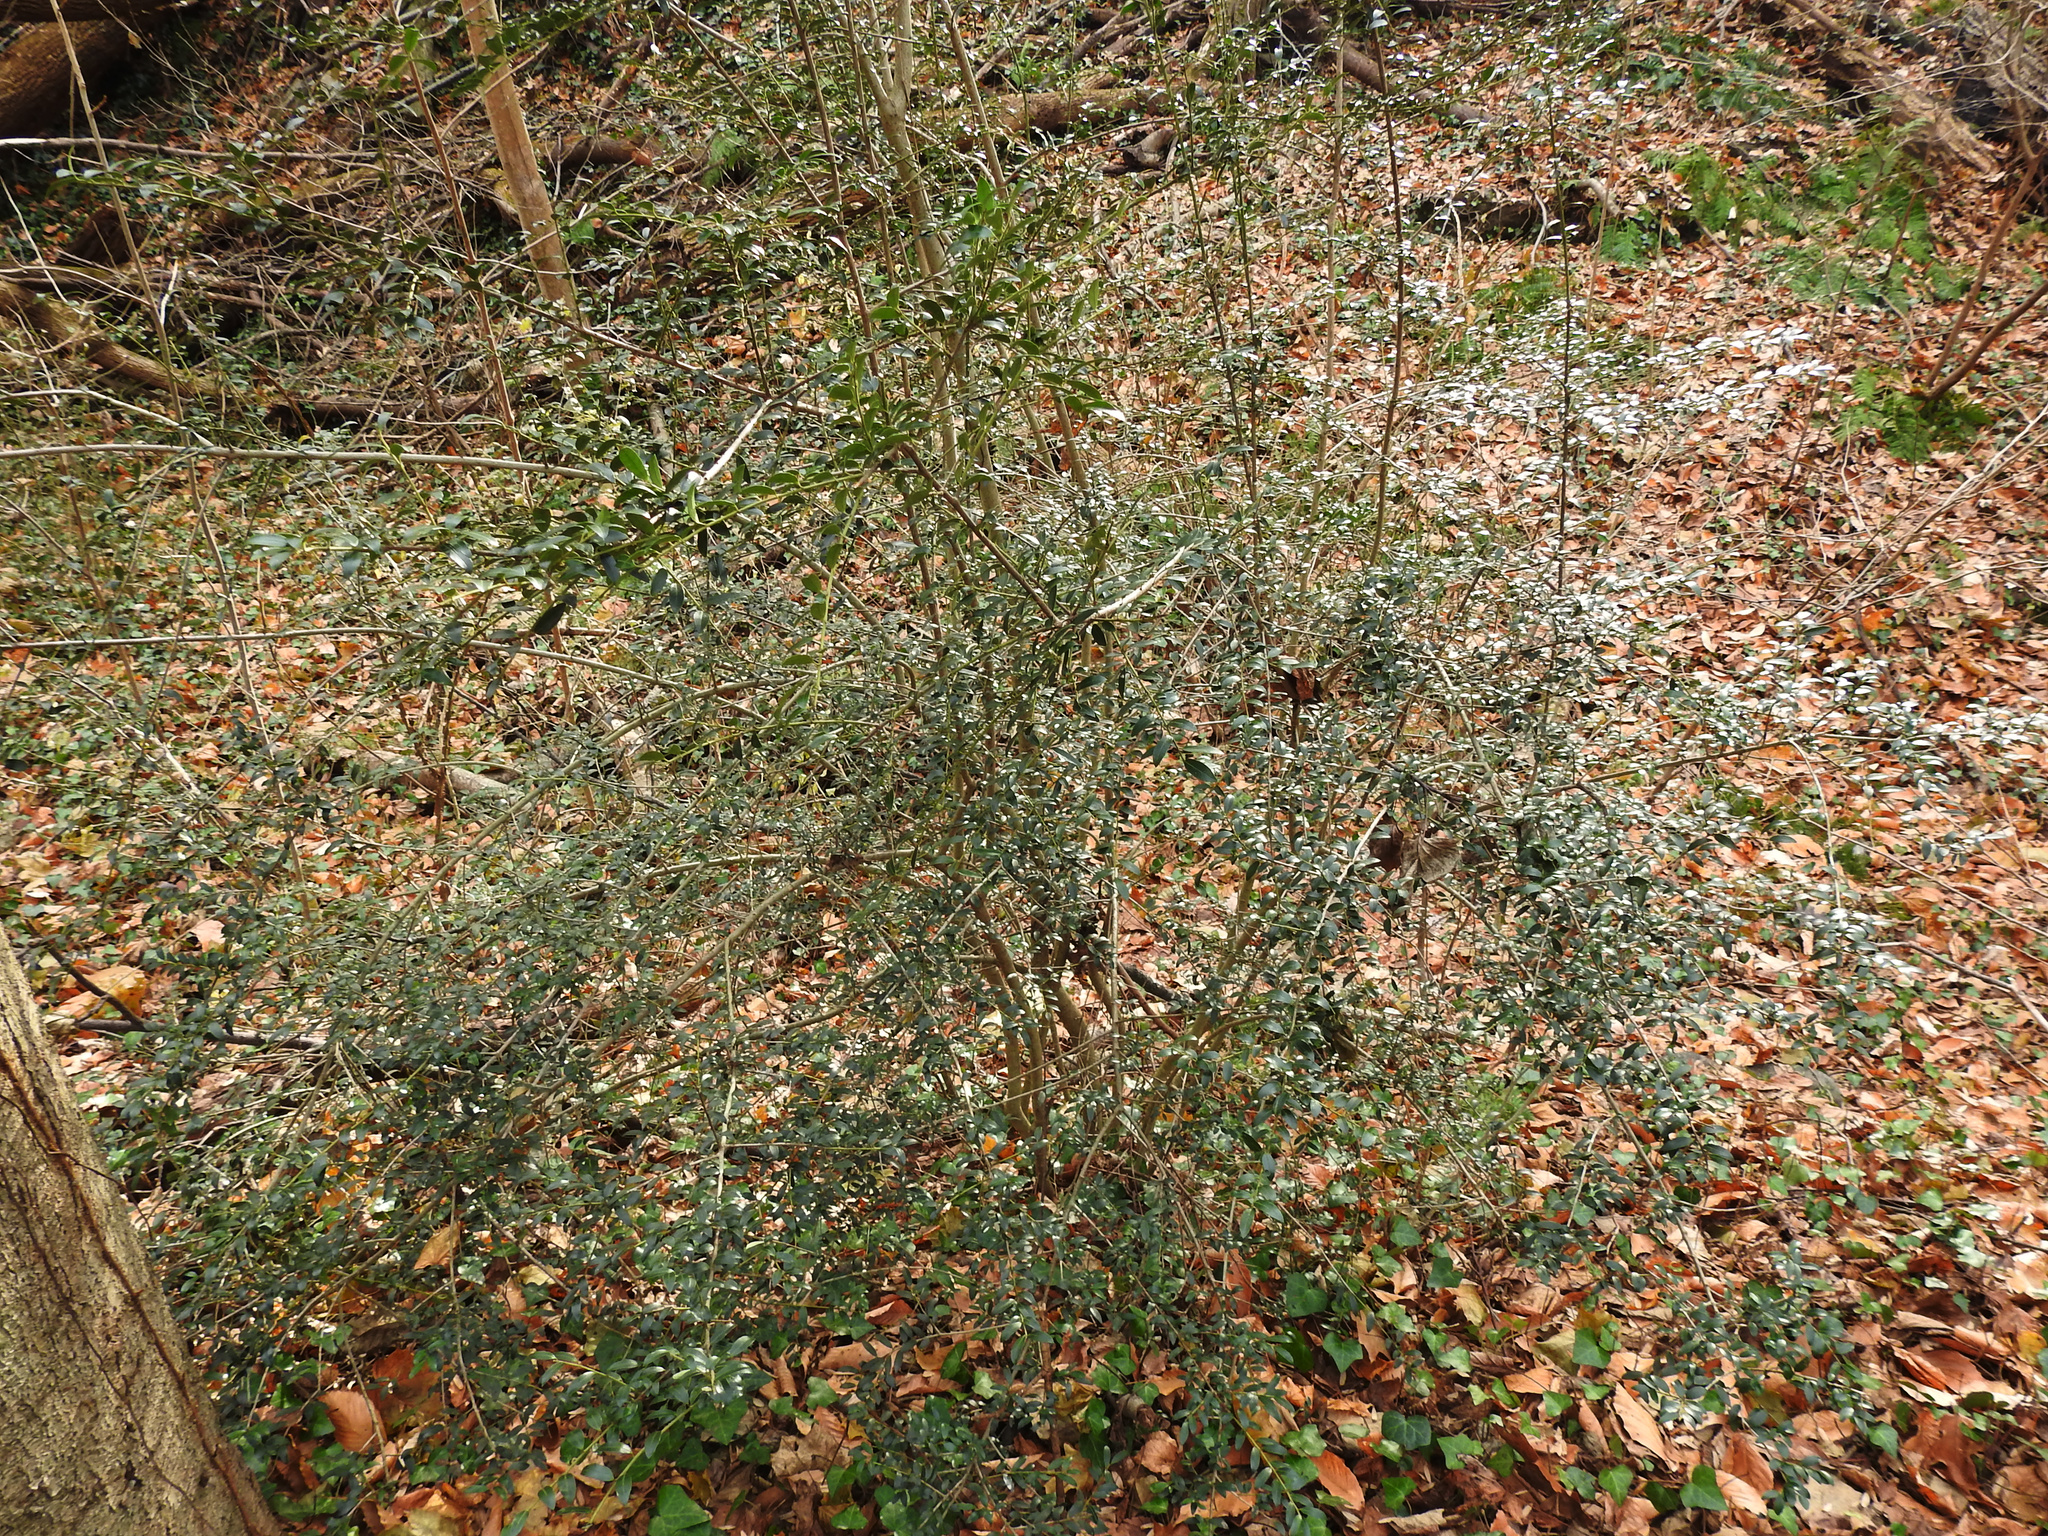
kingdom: Plantae
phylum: Tracheophyta
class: Magnoliopsida
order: Aquifoliales
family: Aquifoliaceae
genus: Ilex
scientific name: Ilex crenata
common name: Japanese holly
